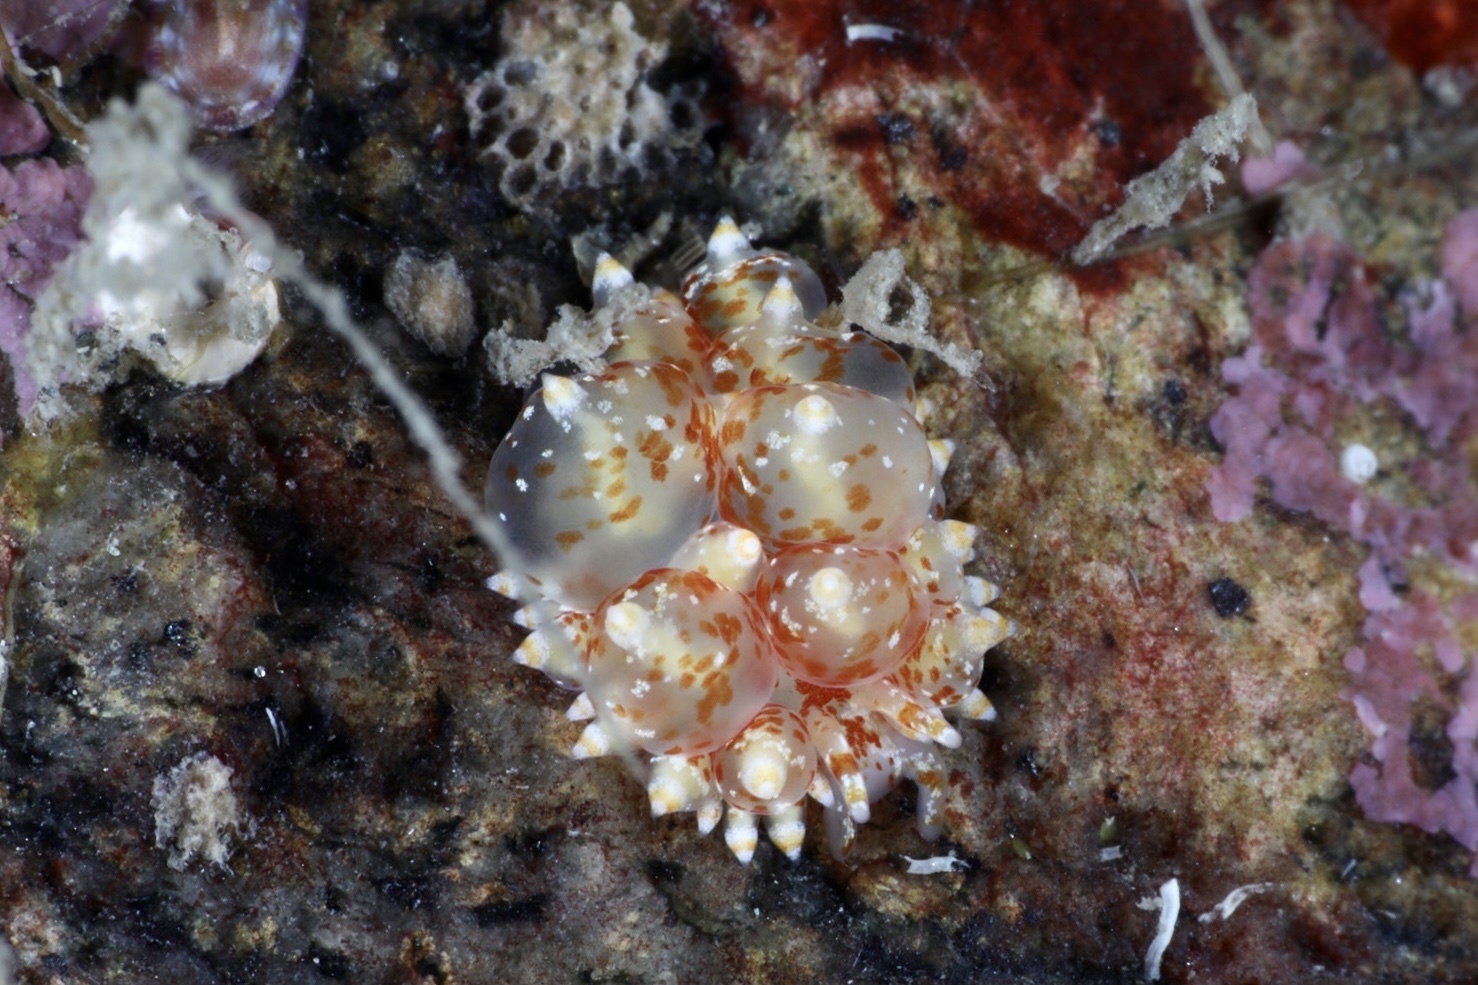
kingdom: Animalia
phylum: Mollusca
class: Gastropoda
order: Nudibranchia
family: Eubranchidae
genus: Amphorina
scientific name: Amphorina pallida
